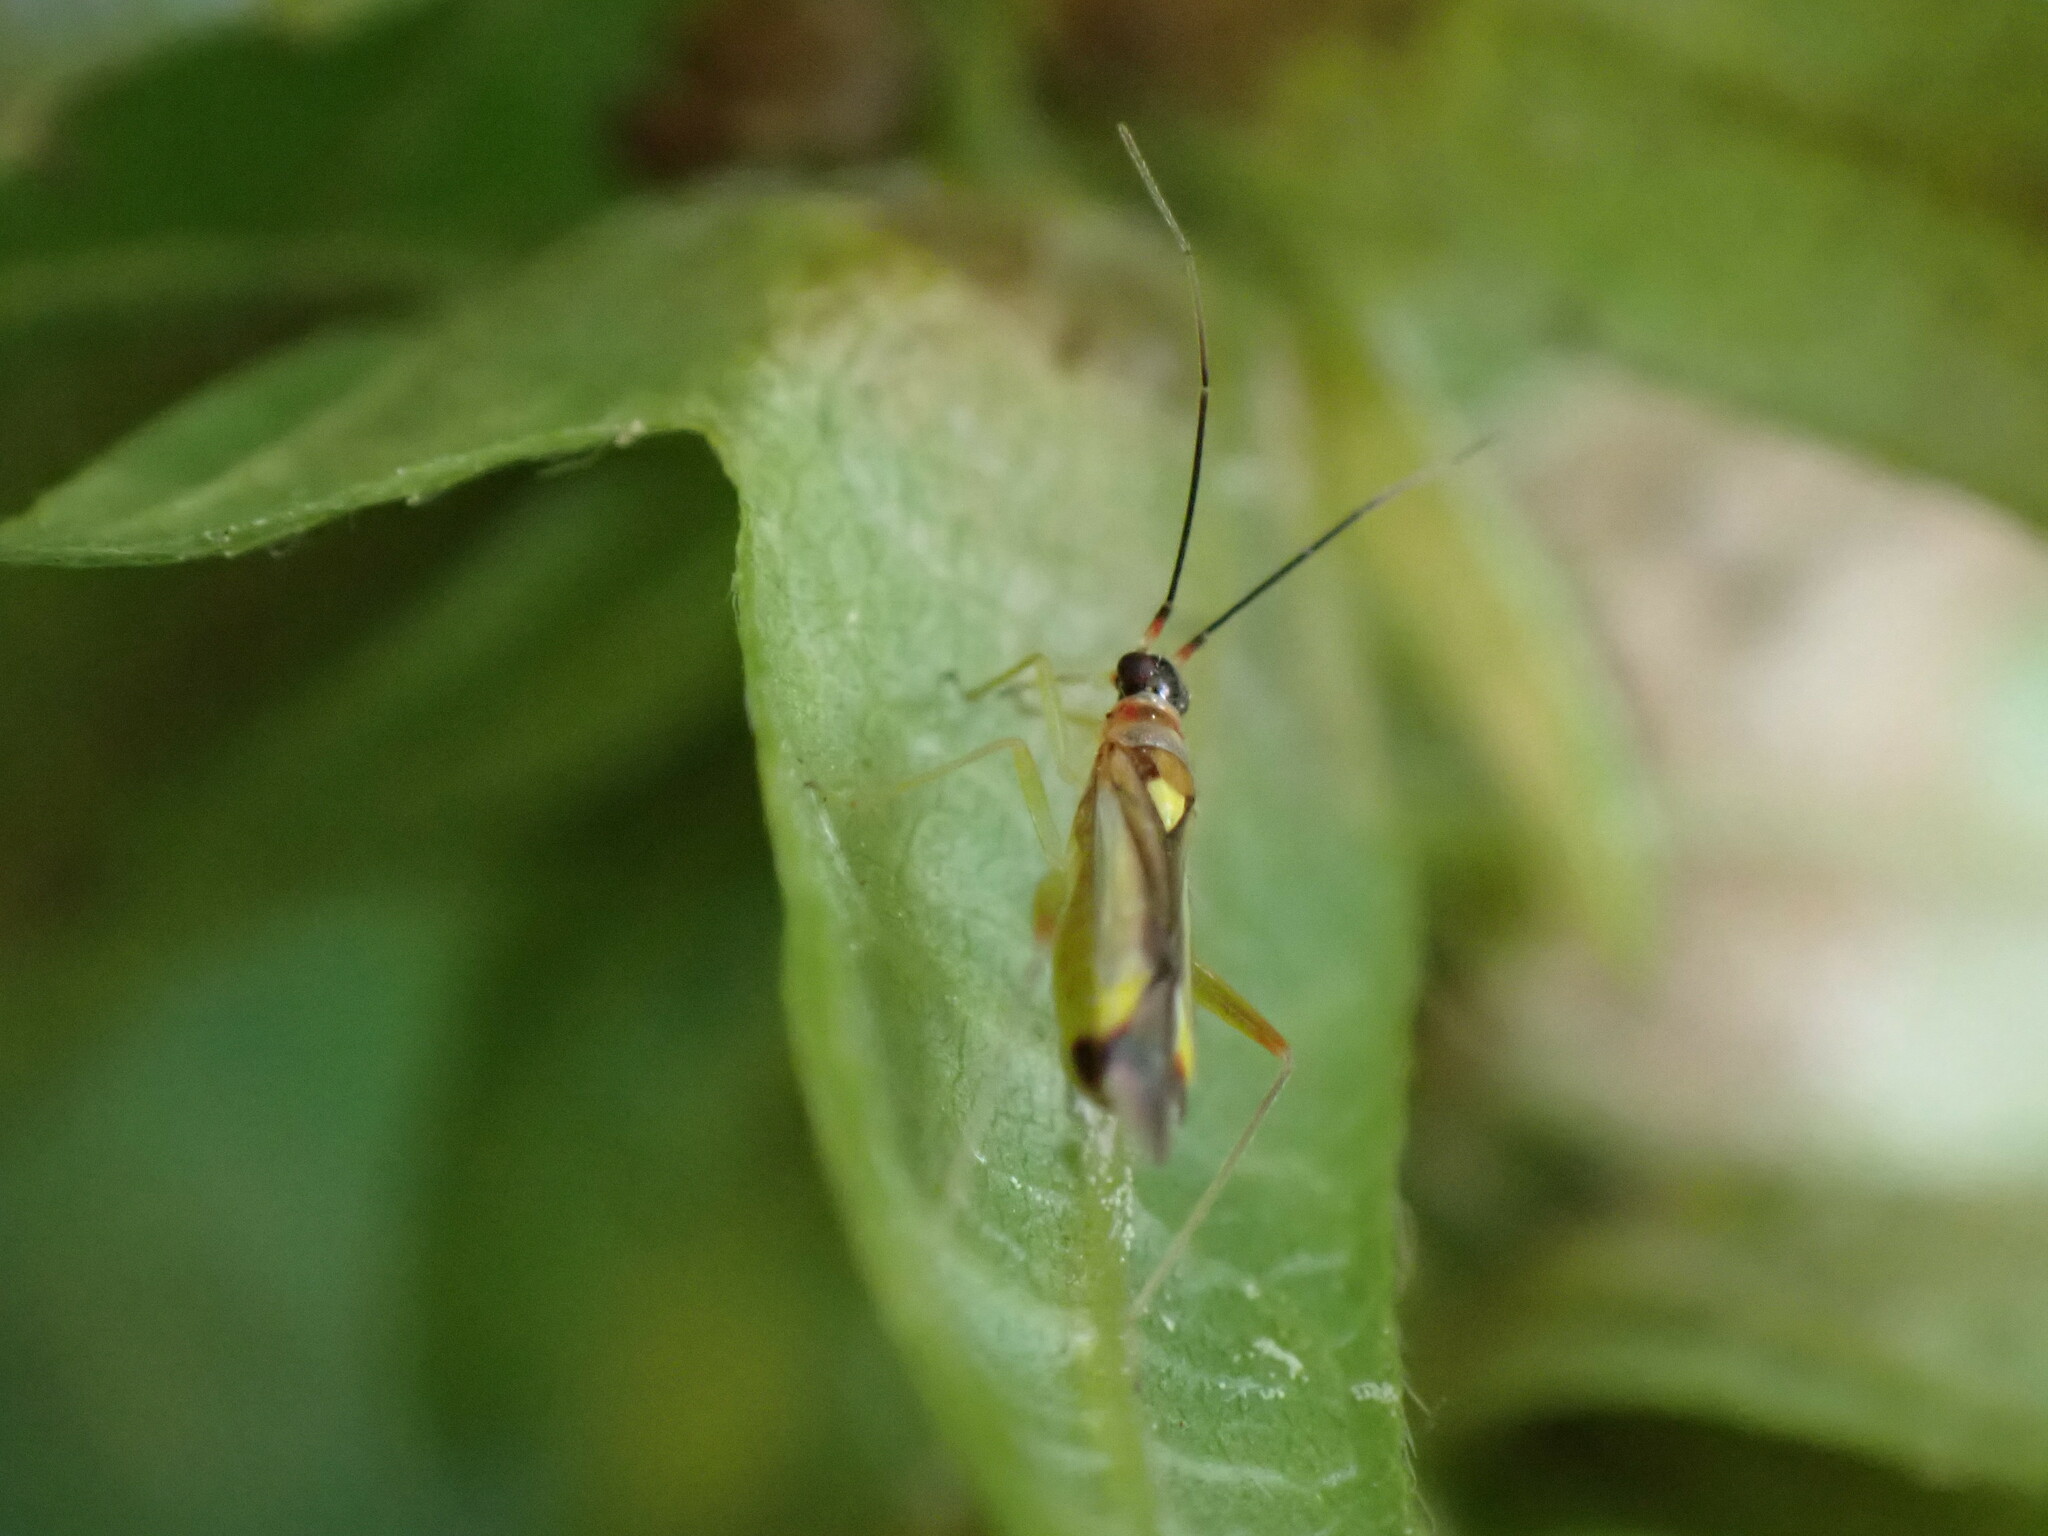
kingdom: Animalia
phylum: Arthropoda
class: Insecta
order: Hemiptera
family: Miridae
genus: Campyloneura
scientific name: Campyloneura virgula
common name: Predatory bug
